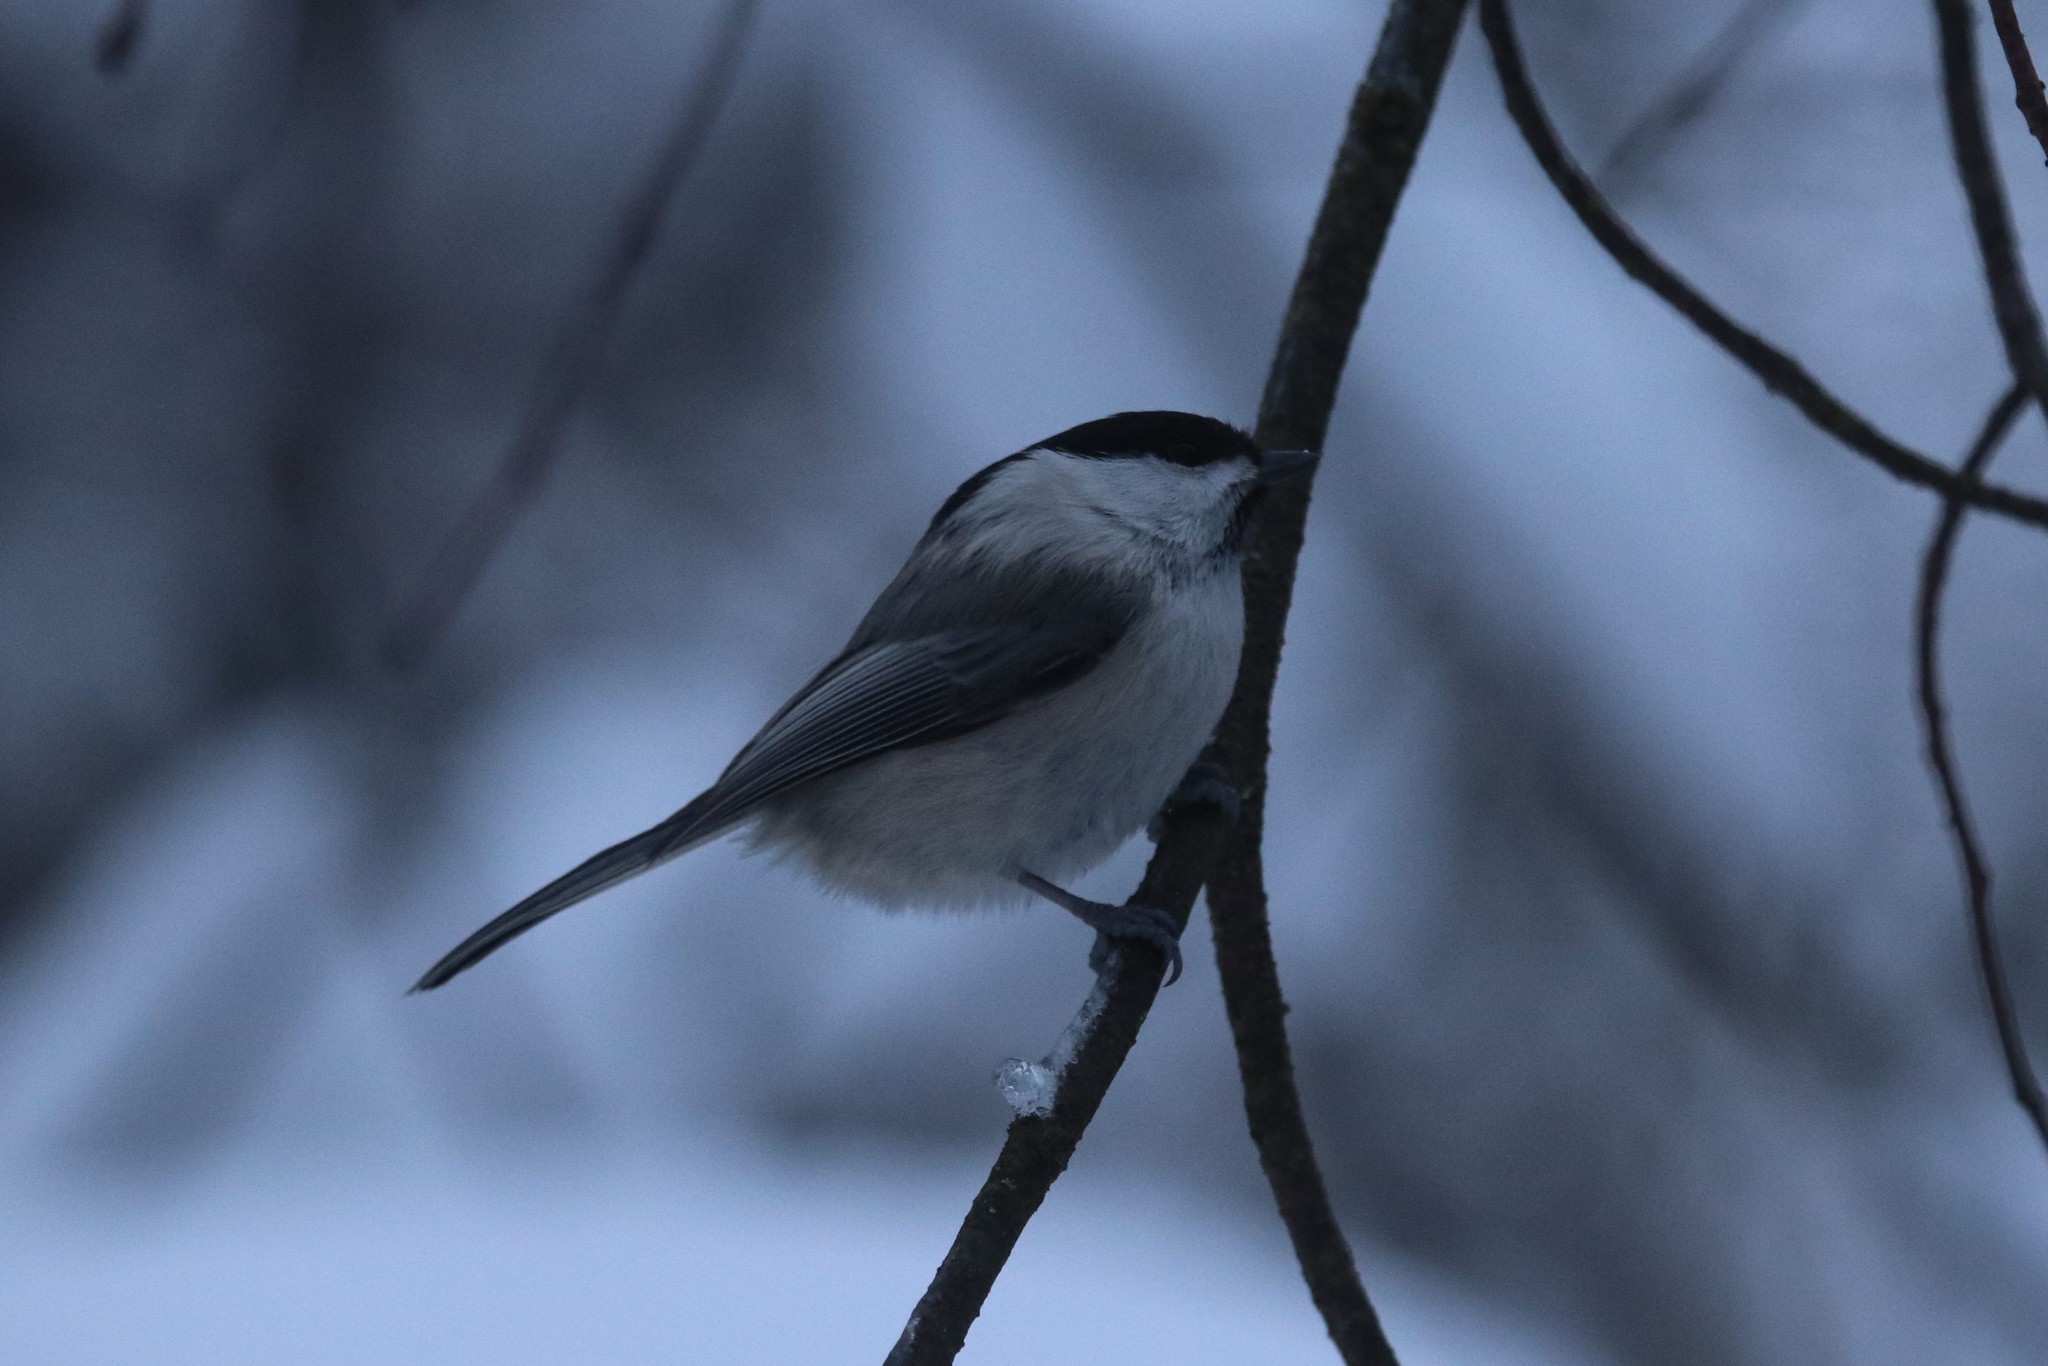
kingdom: Animalia
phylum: Chordata
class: Aves
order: Passeriformes
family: Paridae
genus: Poecile
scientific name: Poecile montanus
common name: Willow tit
